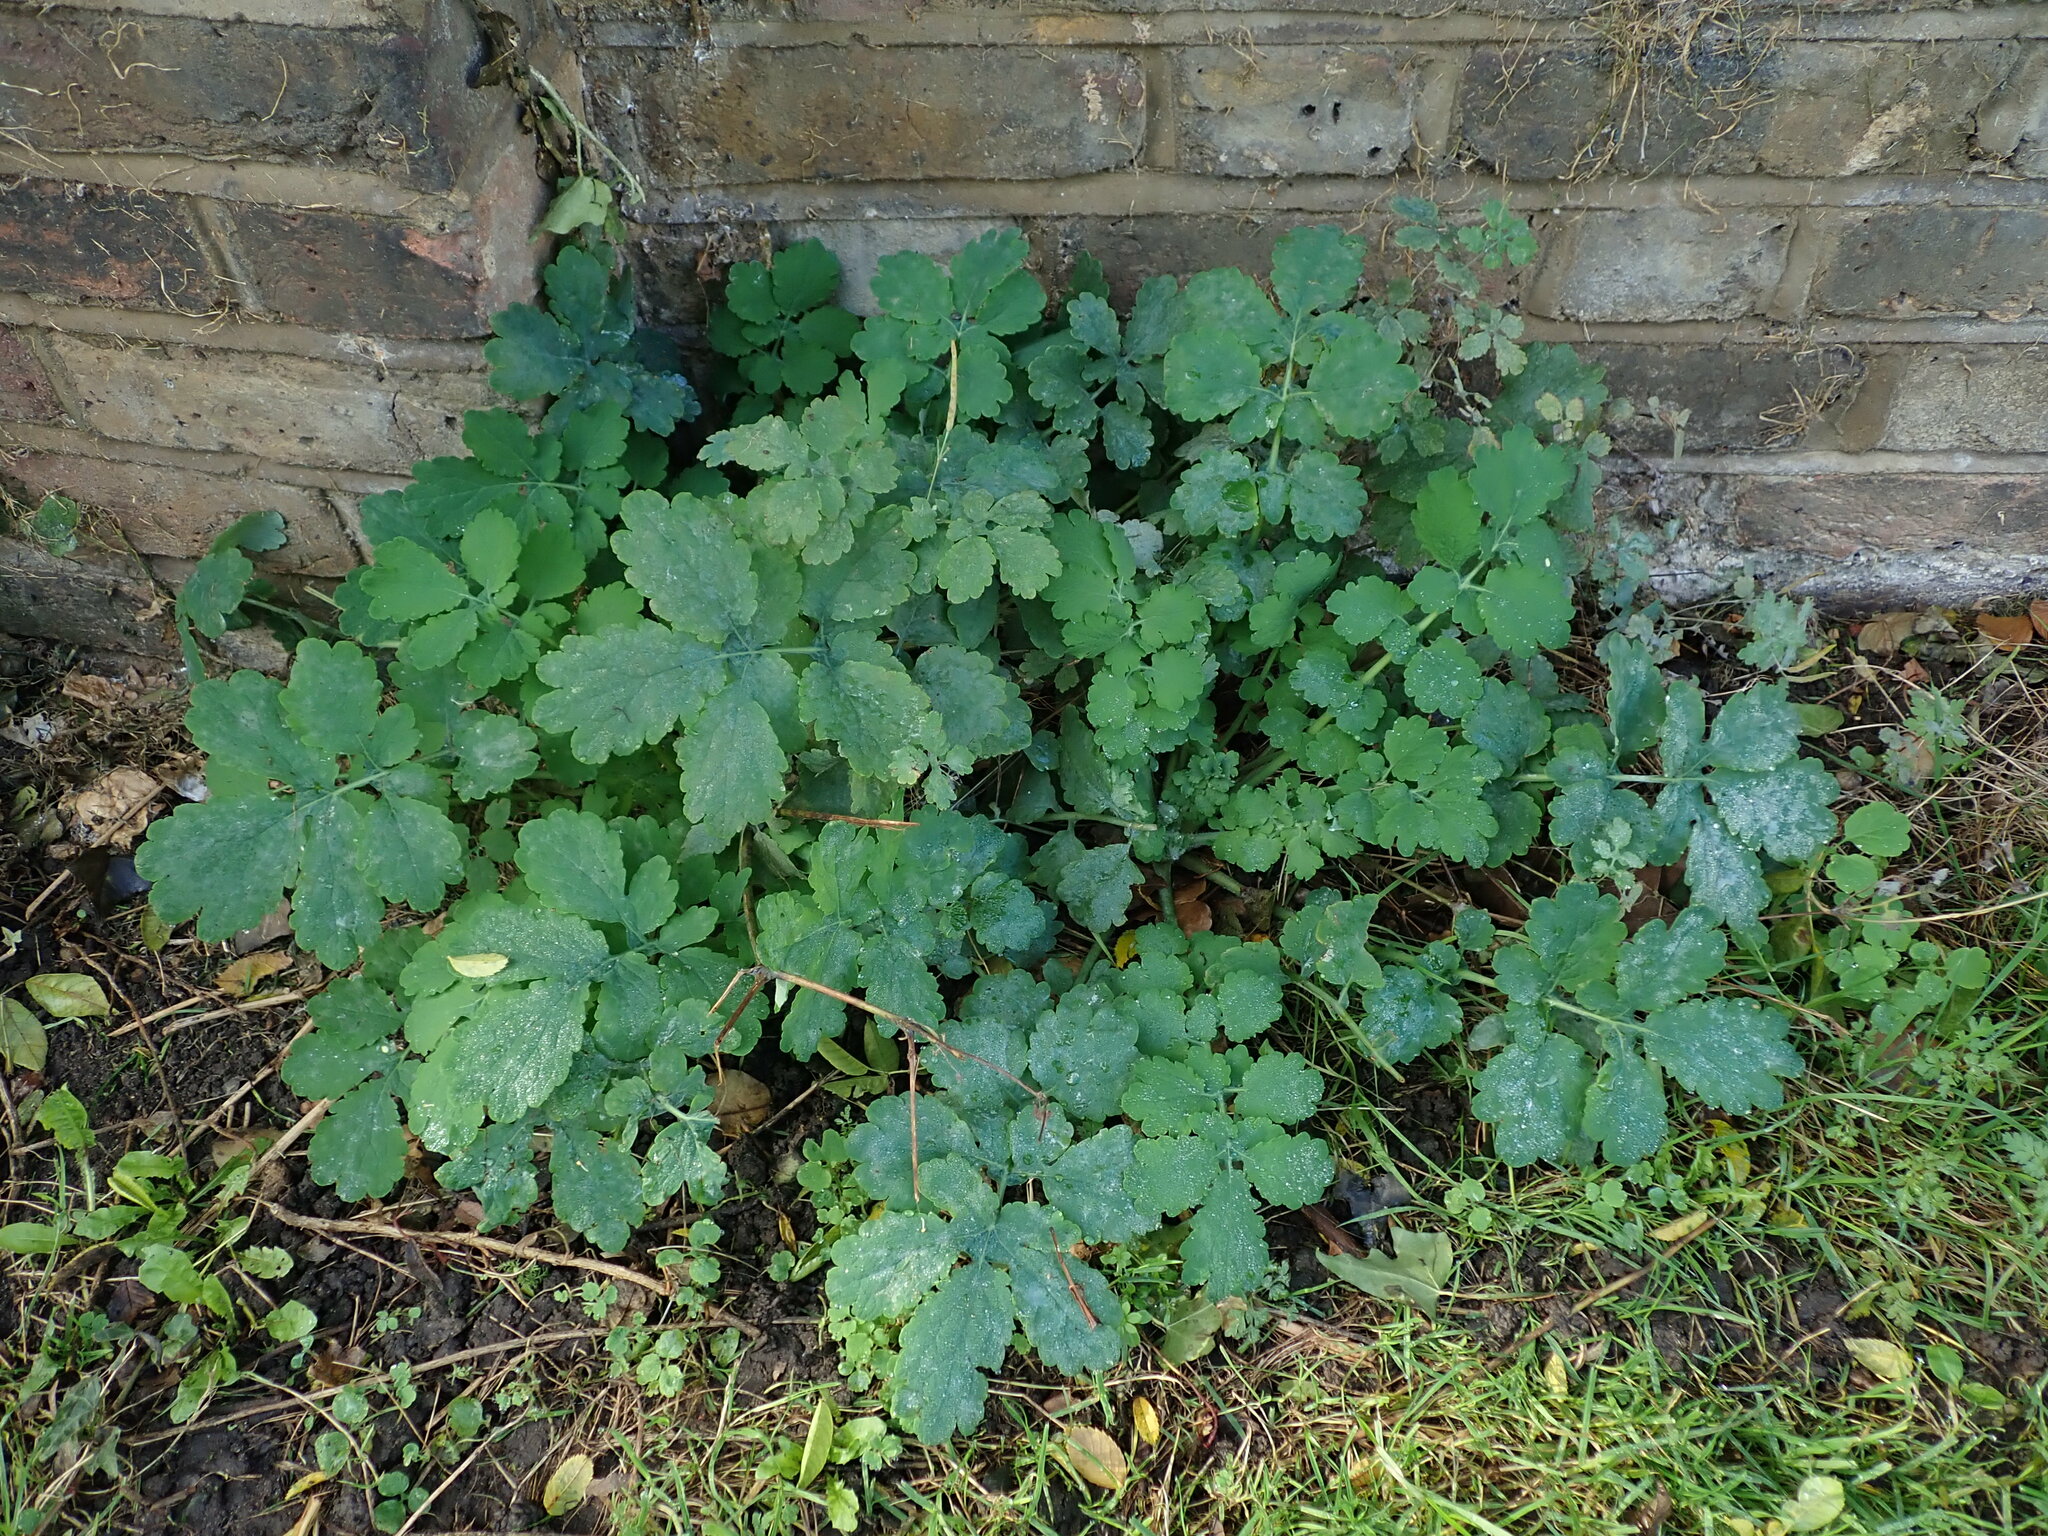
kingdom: Plantae
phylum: Tracheophyta
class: Magnoliopsida
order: Ranunculales
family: Papaveraceae
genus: Chelidonium
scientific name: Chelidonium majus
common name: Greater celandine
